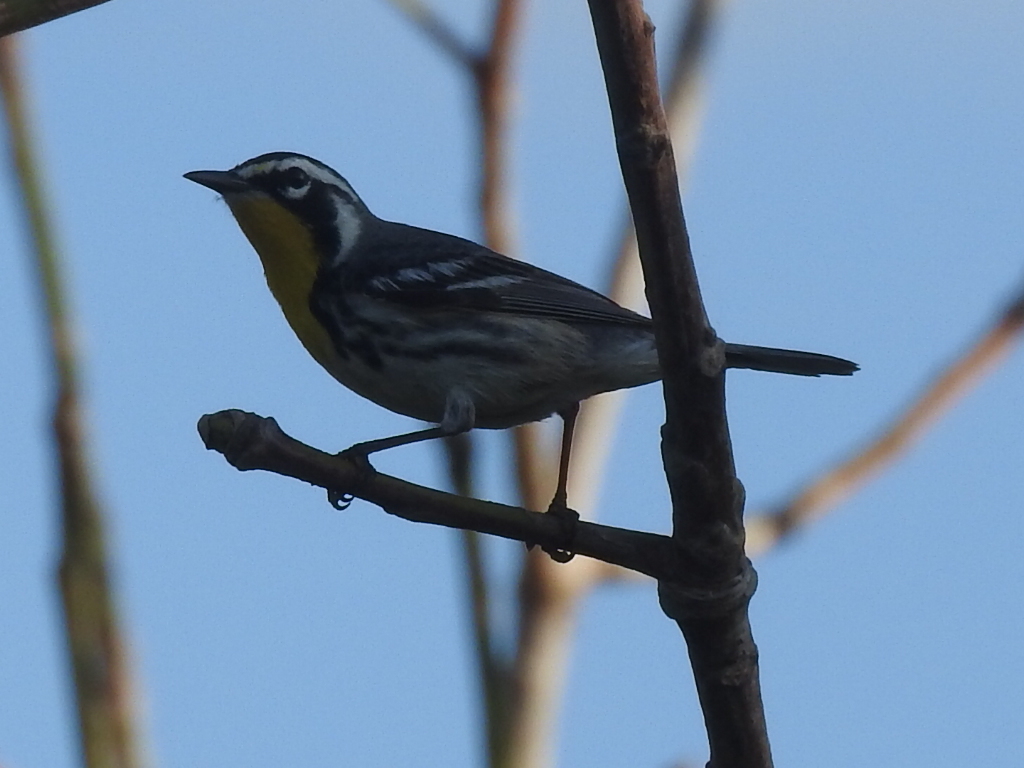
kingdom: Animalia
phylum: Chordata
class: Aves
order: Passeriformes
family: Parulidae
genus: Setophaga
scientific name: Setophaga dominica
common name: Yellow-throated warbler
